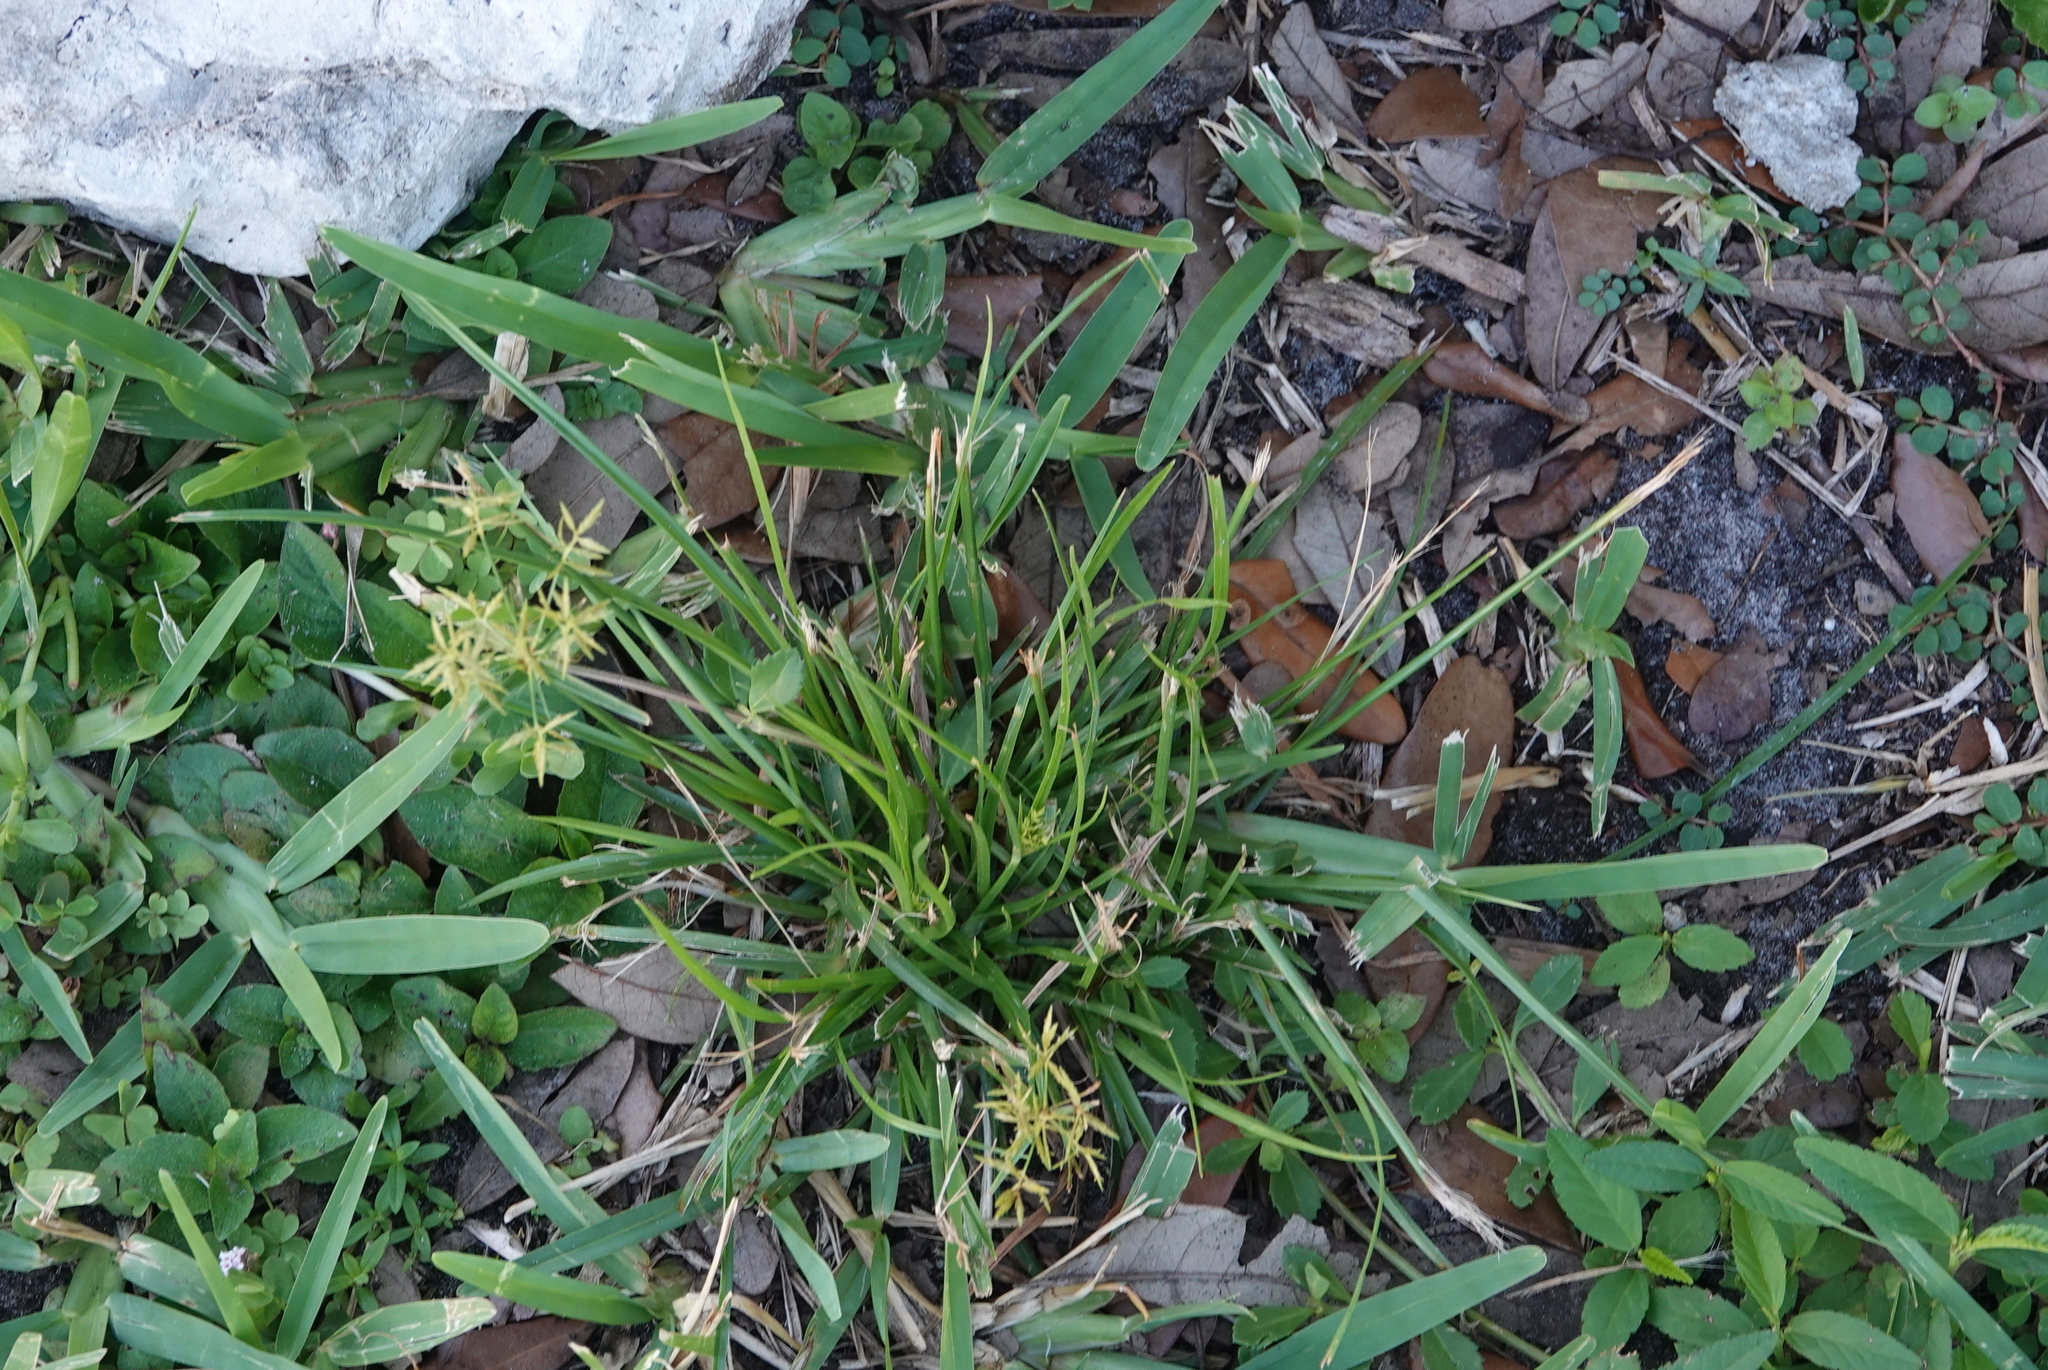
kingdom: Plantae
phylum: Tracheophyta
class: Liliopsida
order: Poales
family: Cyperaceae
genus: Cyperus
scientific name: Cyperus polystachyos
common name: Bunchy flat sedge
